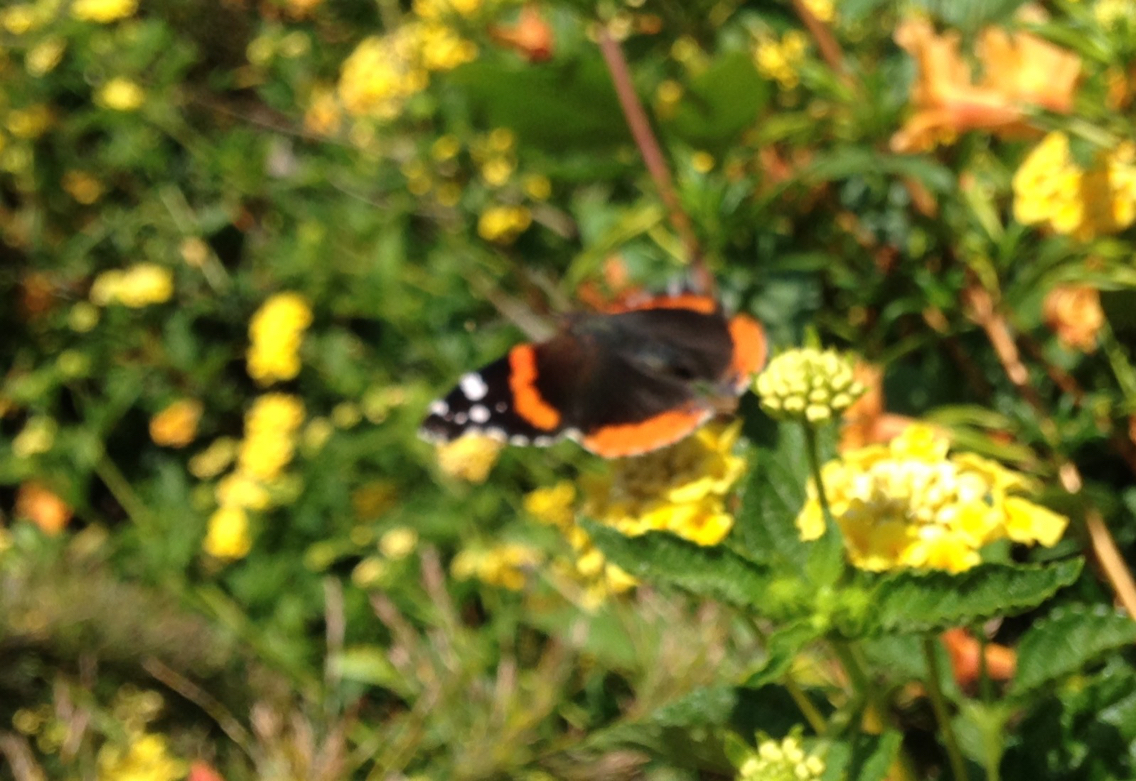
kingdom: Animalia
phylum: Arthropoda
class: Insecta
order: Lepidoptera
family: Nymphalidae
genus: Vanessa
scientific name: Vanessa atalanta
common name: Red admiral
